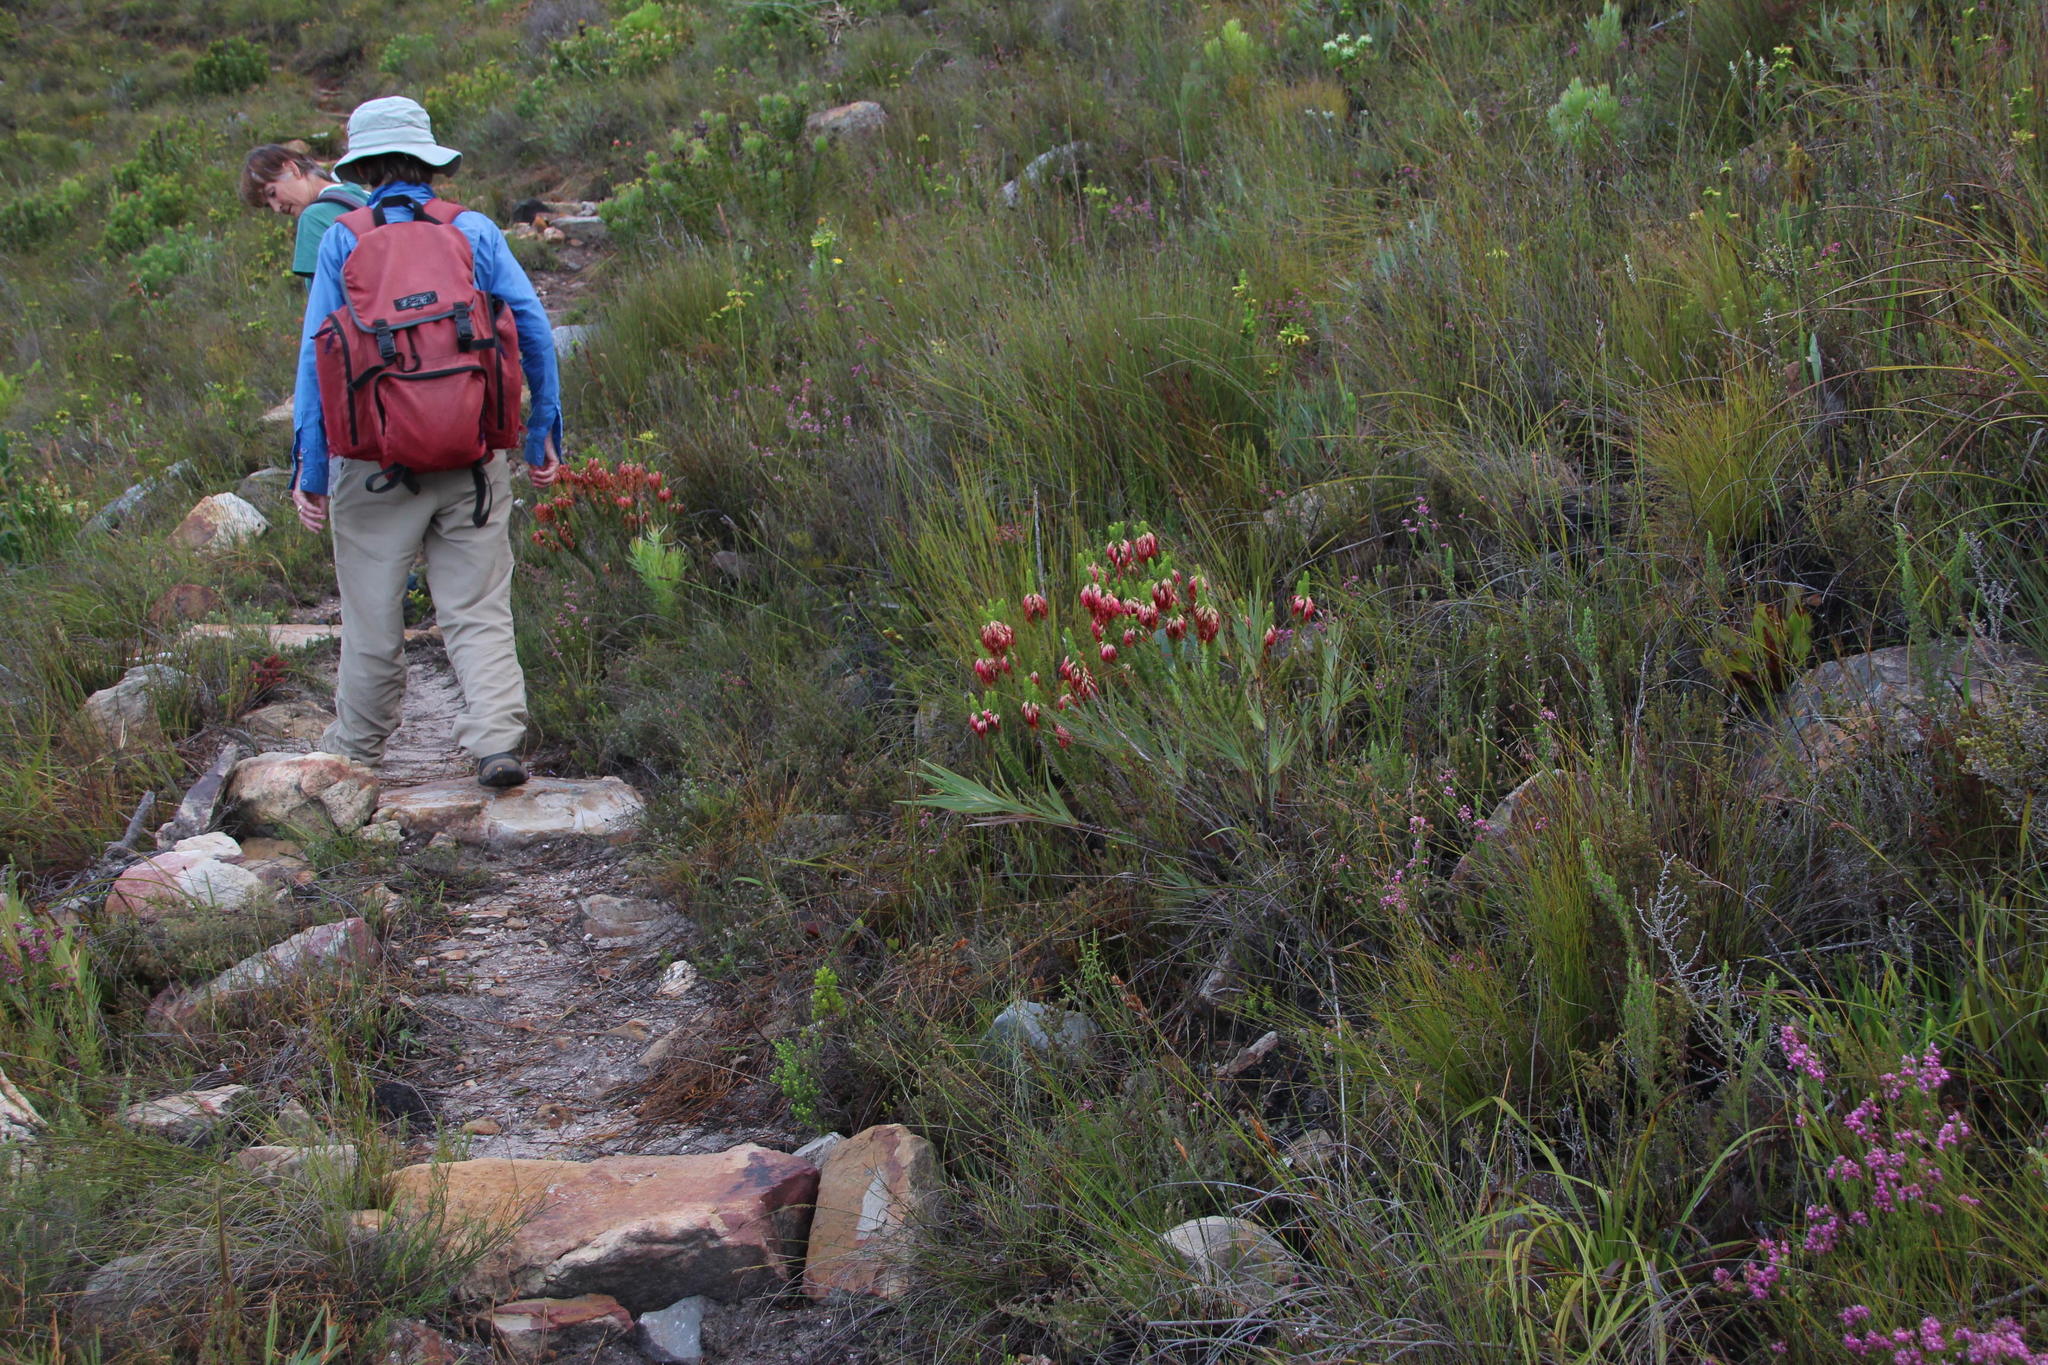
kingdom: Plantae
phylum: Tracheophyta
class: Magnoliopsida
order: Ericales
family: Ericaceae
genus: Erica
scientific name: Erica coccinea
